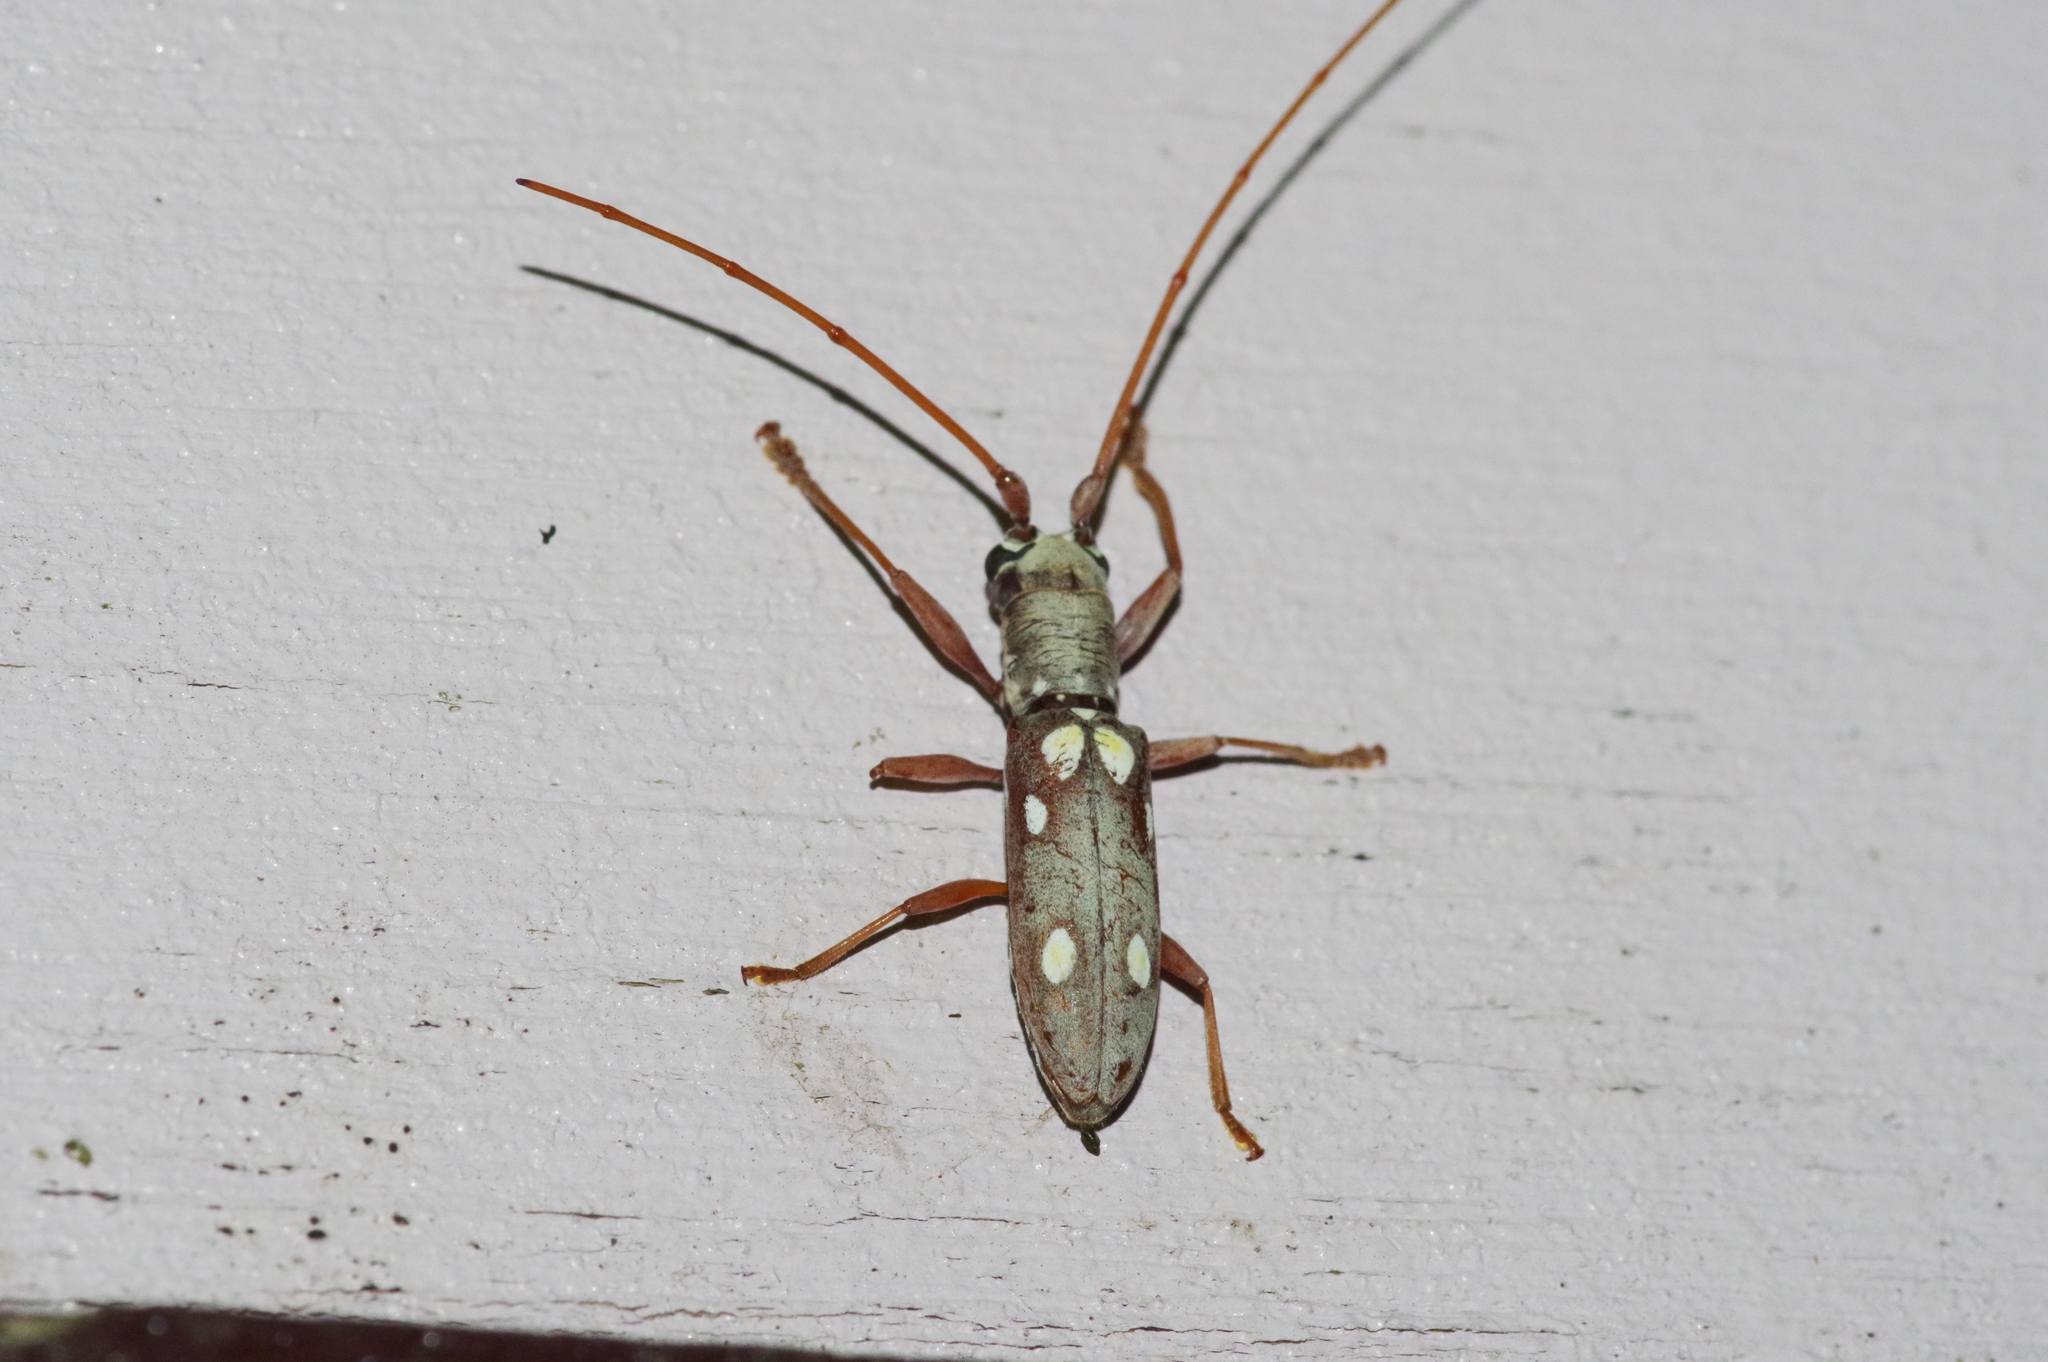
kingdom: Animalia
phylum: Arthropoda
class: Insecta
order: Coleoptera
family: Cerambycidae
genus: Olenecamptus
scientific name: Olenecamptus taiwanus
